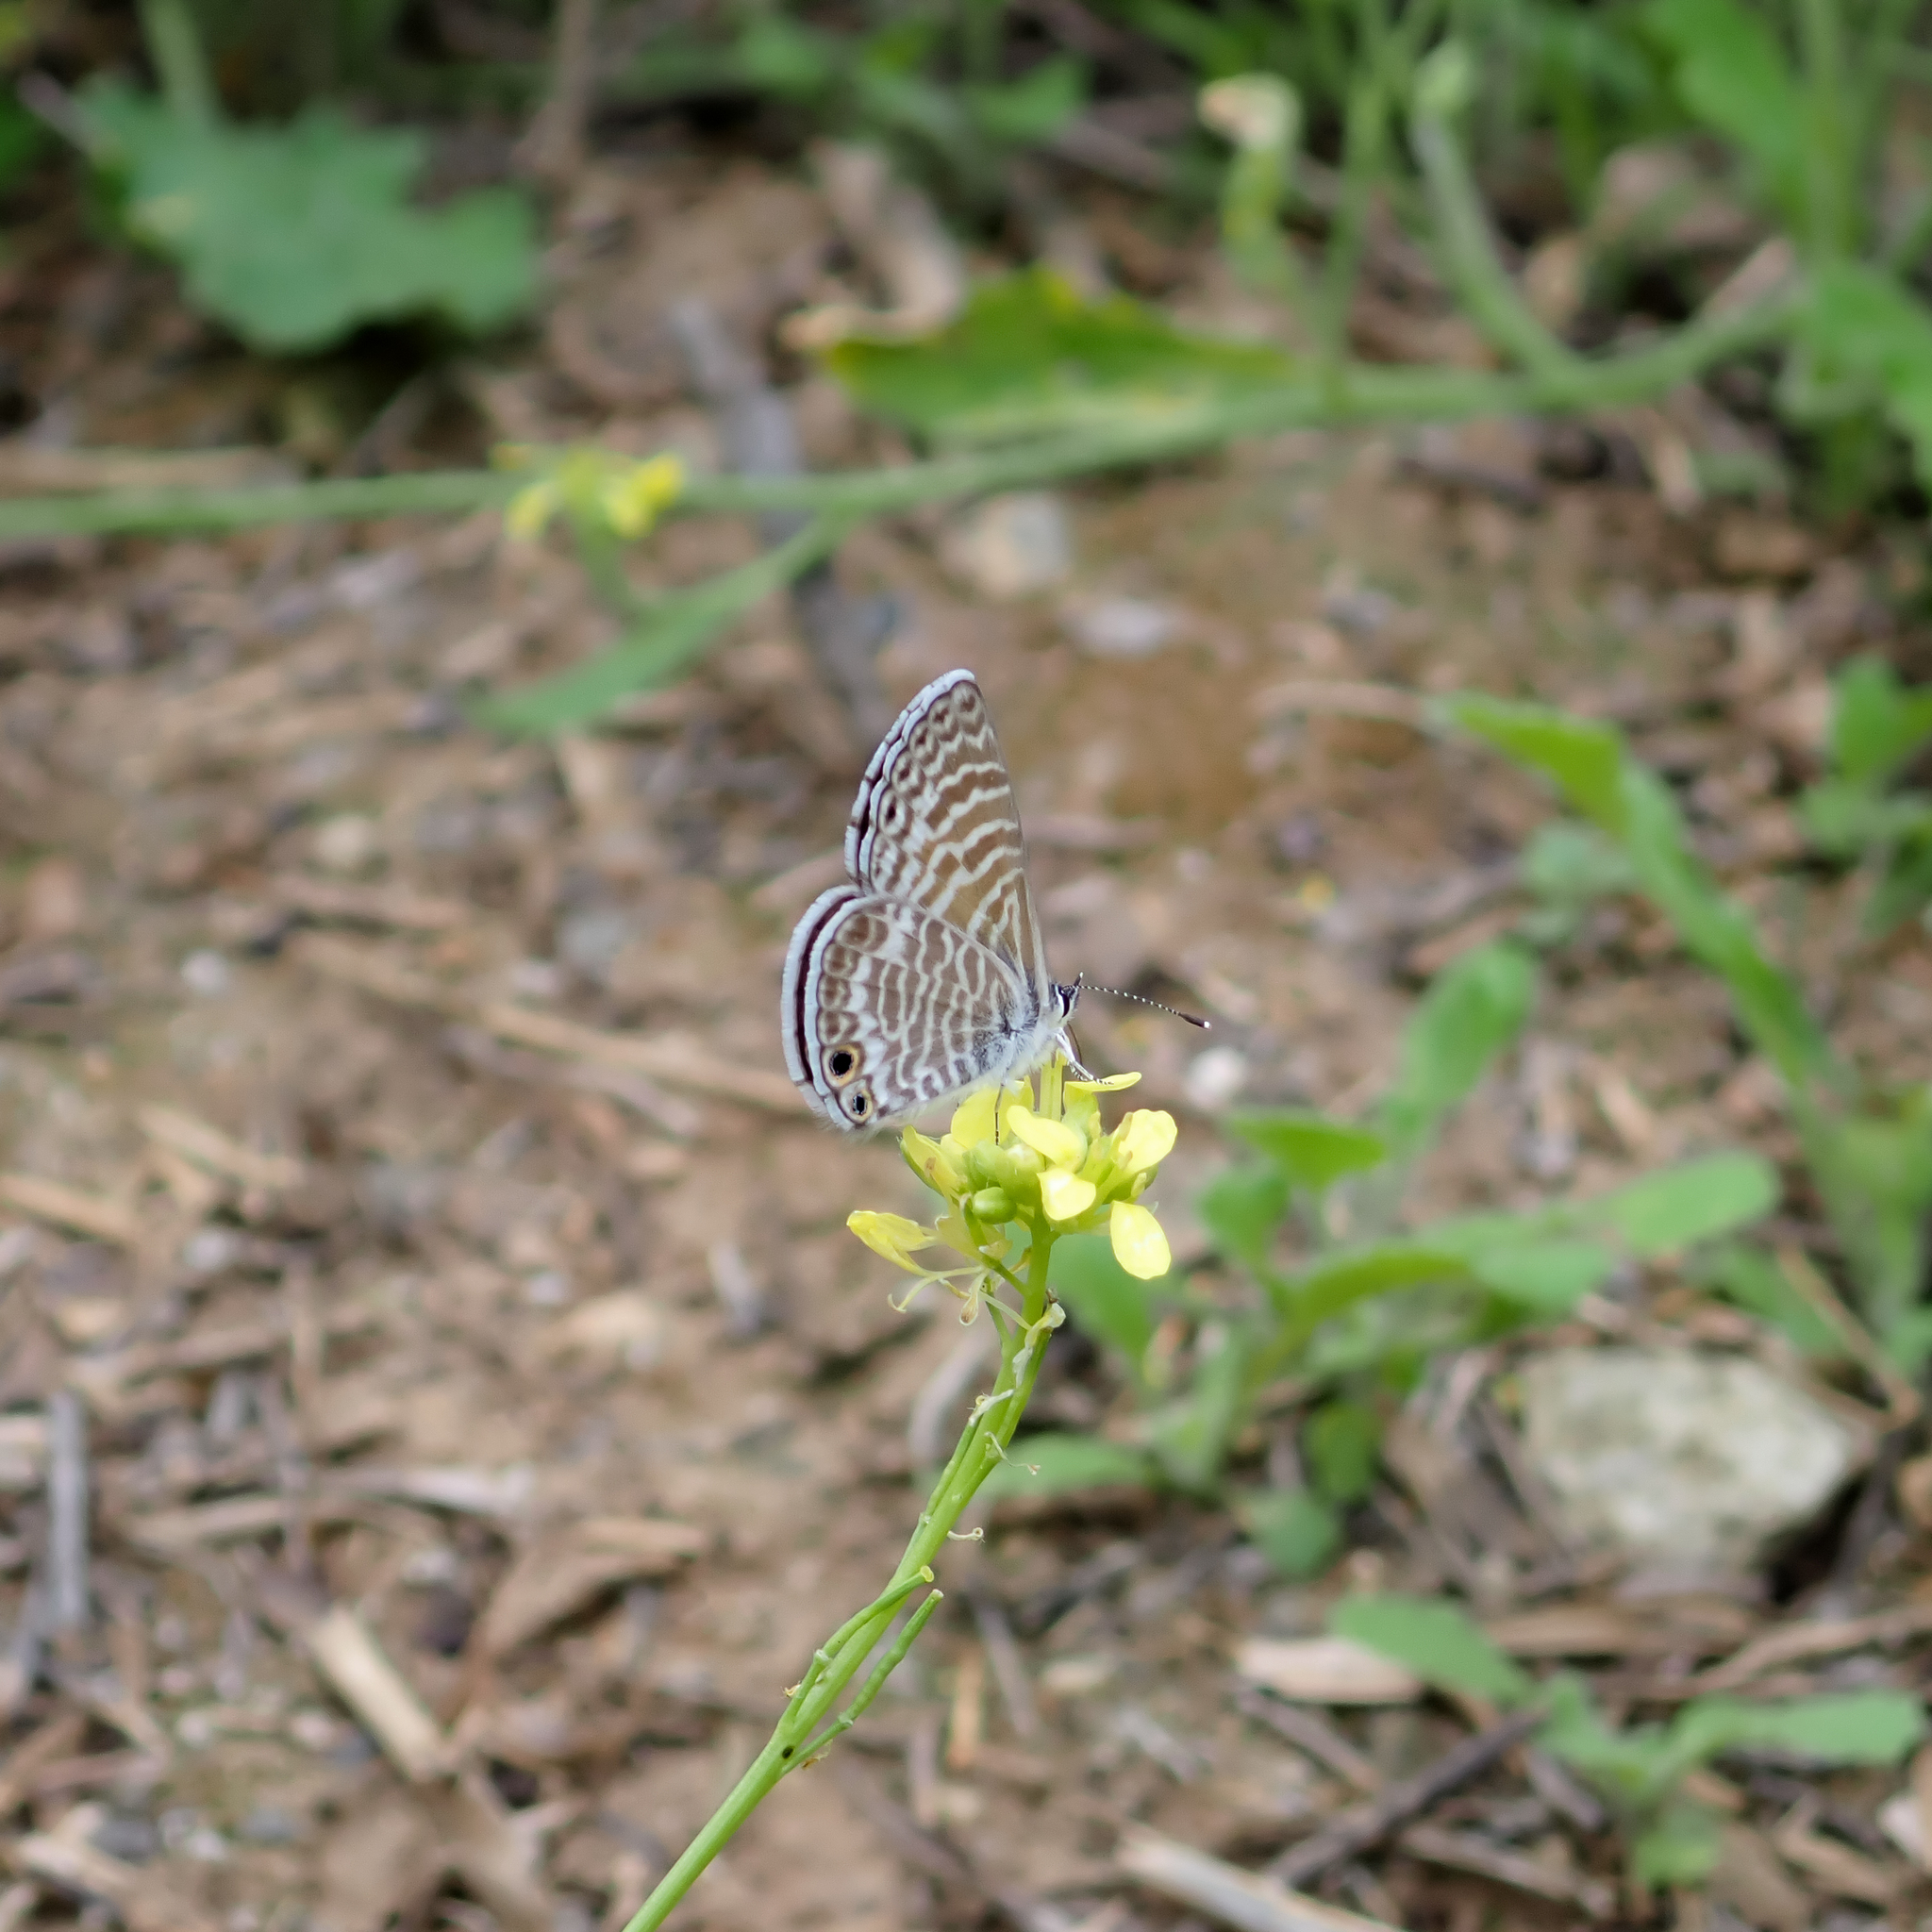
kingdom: Animalia
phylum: Arthropoda
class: Insecta
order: Lepidoptera
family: Lycaenidae
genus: Leptotes
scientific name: Leptotes marina
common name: Marine blue
